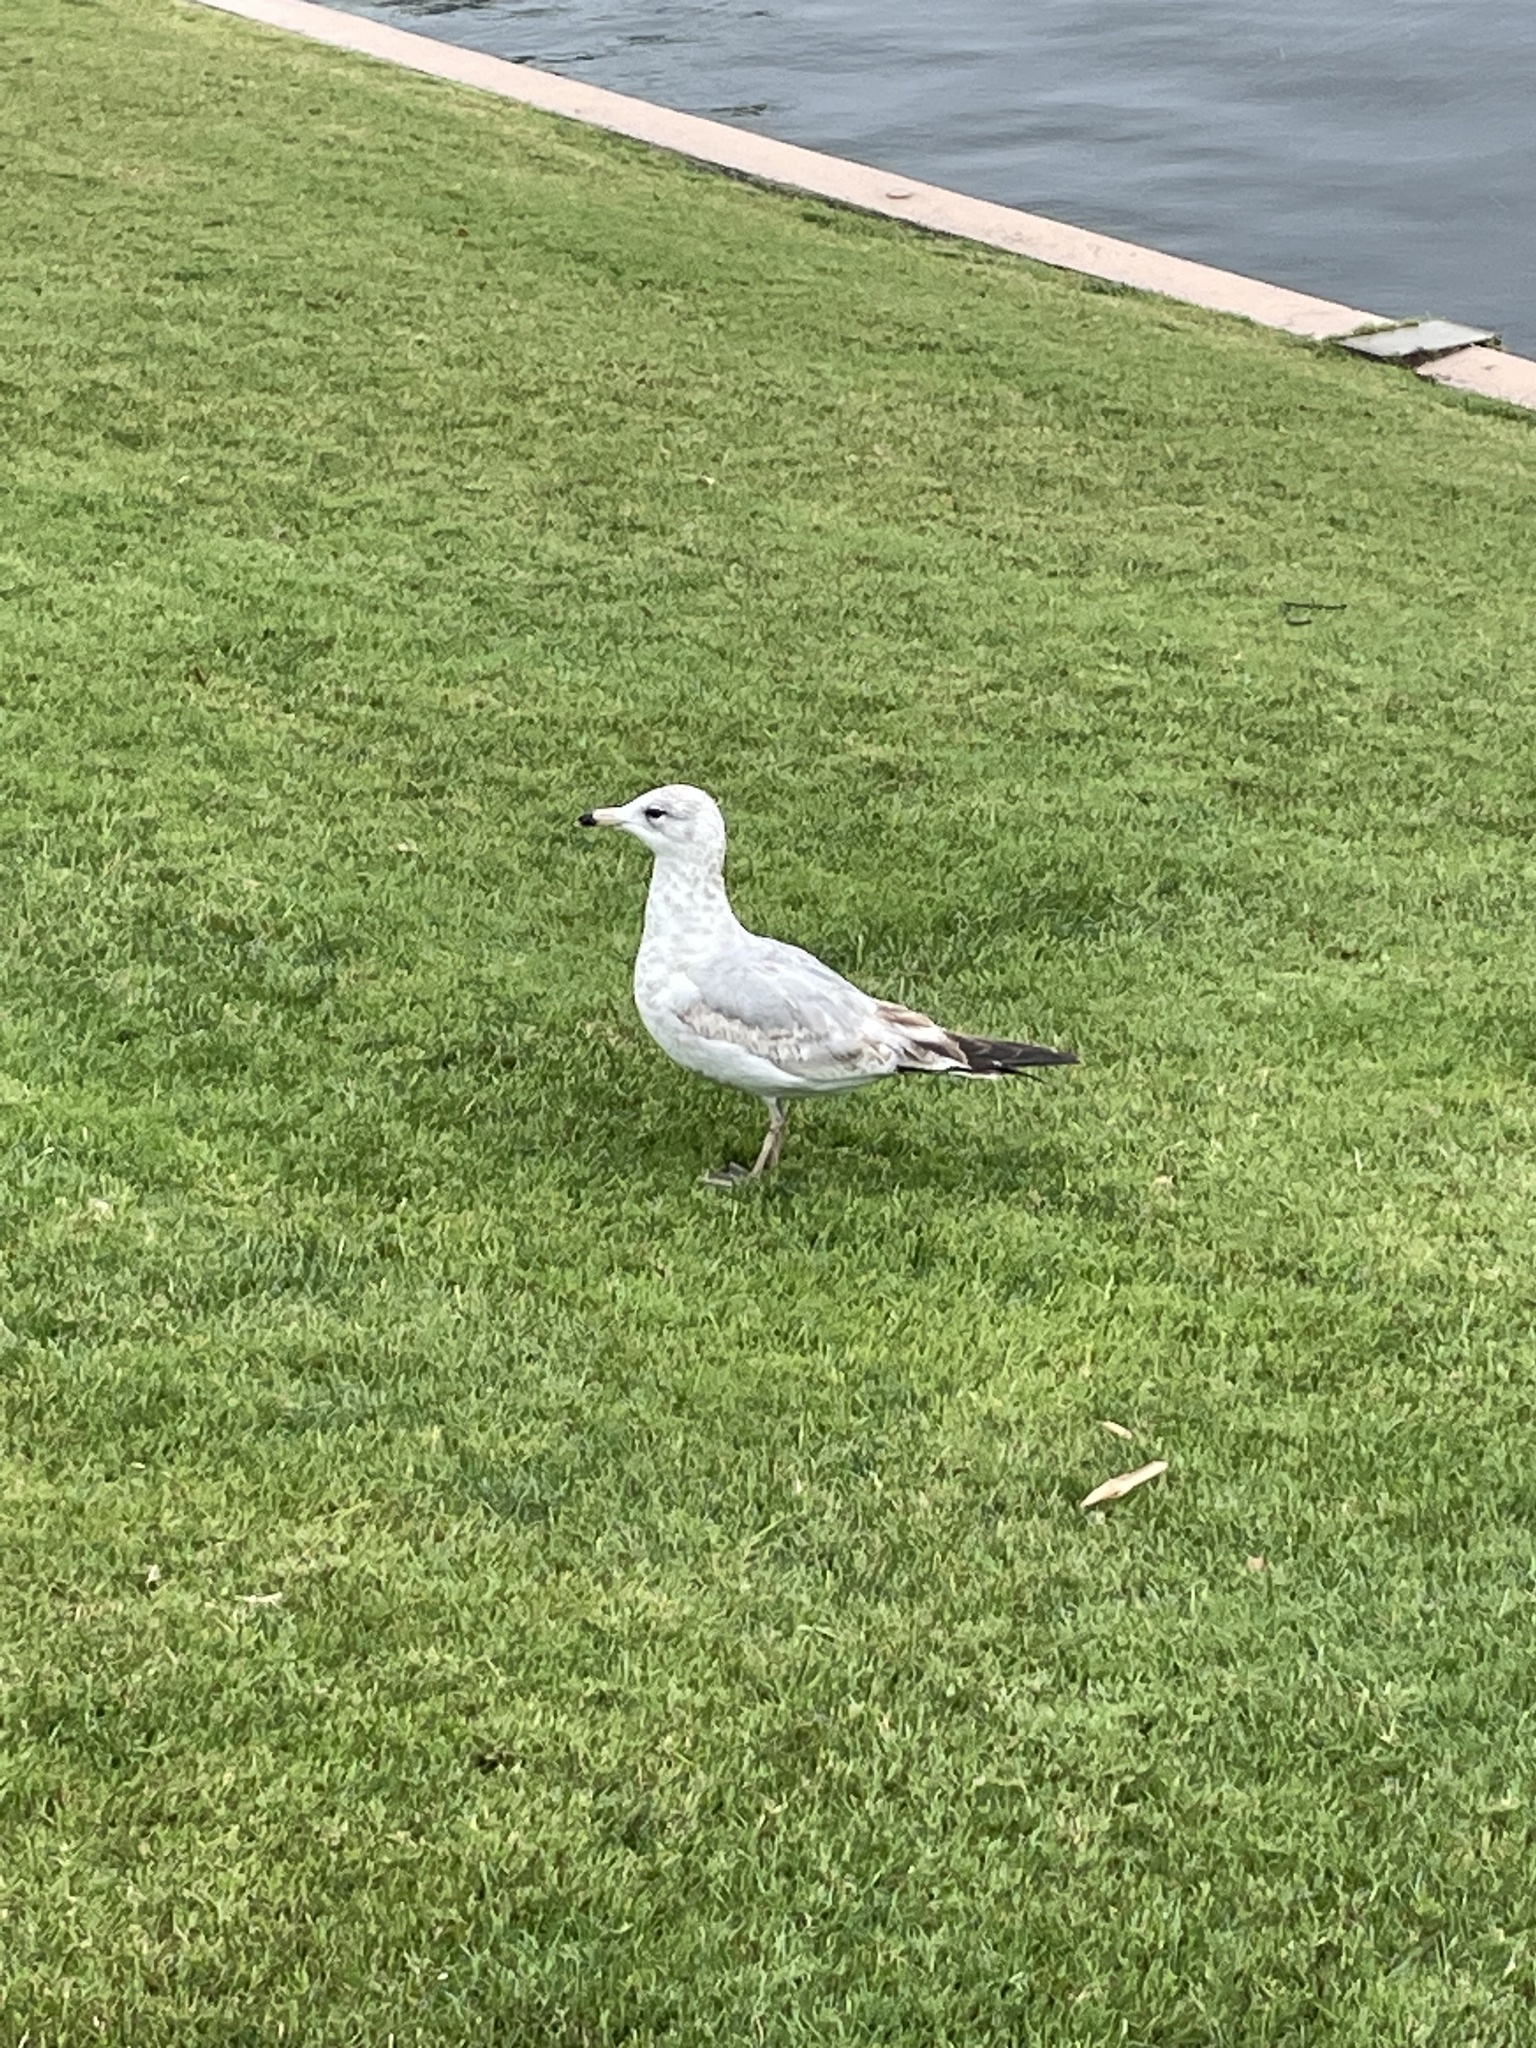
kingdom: Animalia
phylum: Chordata
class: Aves
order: Charadriiformes
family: Laridae
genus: Larus
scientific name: Larus delawarensis
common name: Ring-billed gull
